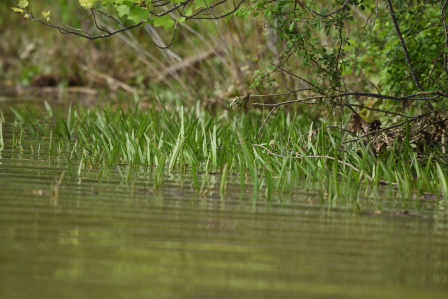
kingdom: Plantae
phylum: Tracheophyta
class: Liliopsida
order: Asparagales
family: Iridaceae
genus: Iris
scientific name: Iris pseudacorus
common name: Yellow flag
